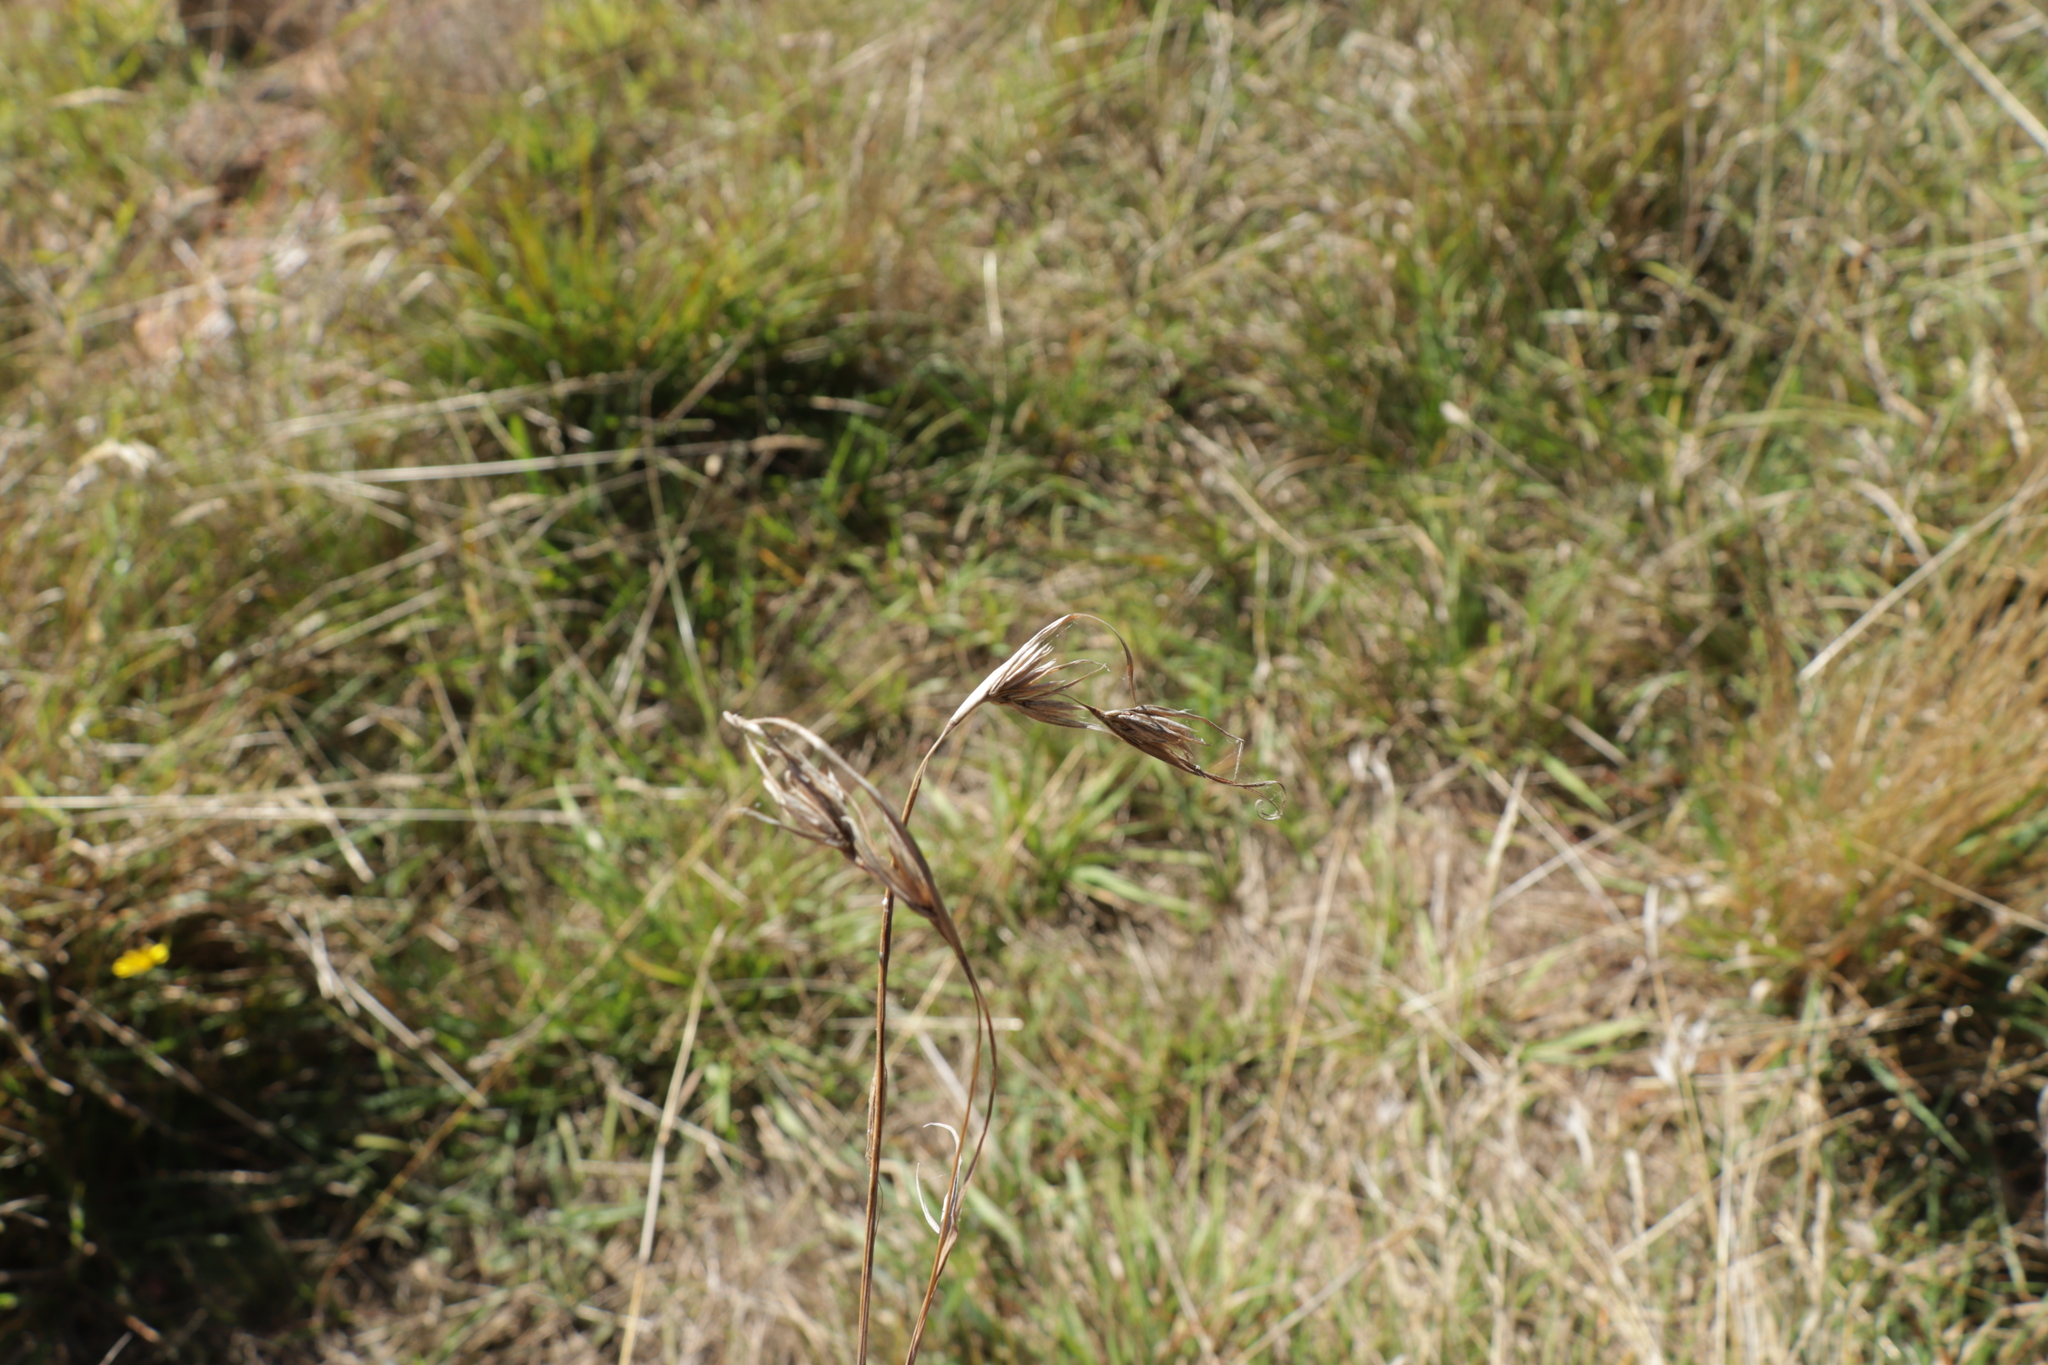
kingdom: Plantae
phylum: Tracheophyta
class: Liliopsida
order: Poales
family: Poaceae
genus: Themeda
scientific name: Themeda triandra
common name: Kangaroo grass
